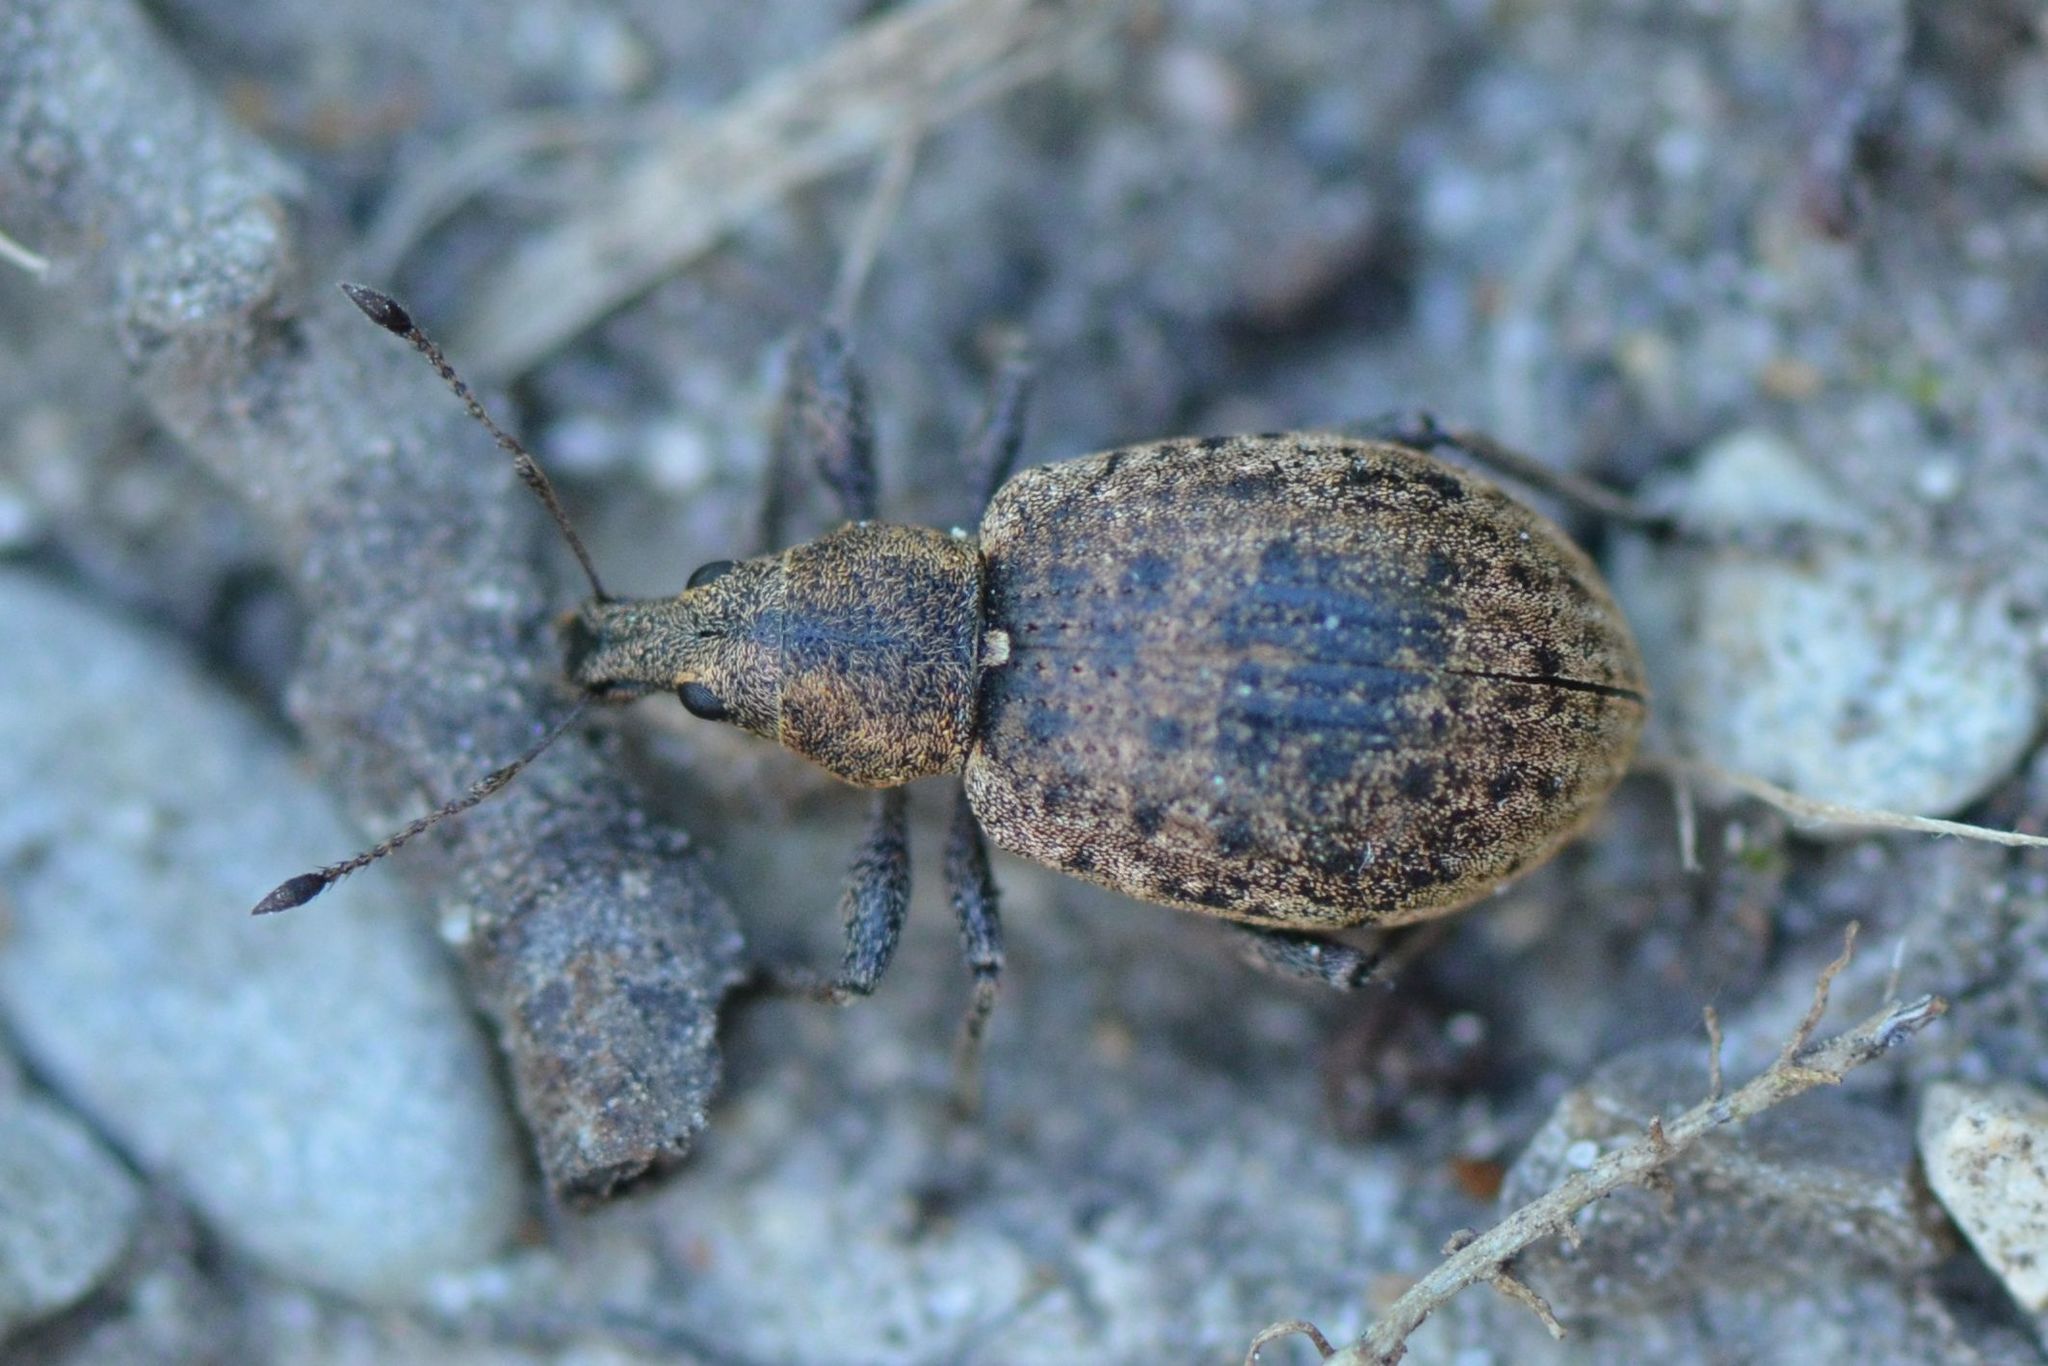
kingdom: Animalia
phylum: Arthropoda
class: Insecta
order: Coleoptera
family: Curculionidae
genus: Liophloeus
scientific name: Liophloeus tessulatus
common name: Weevil
